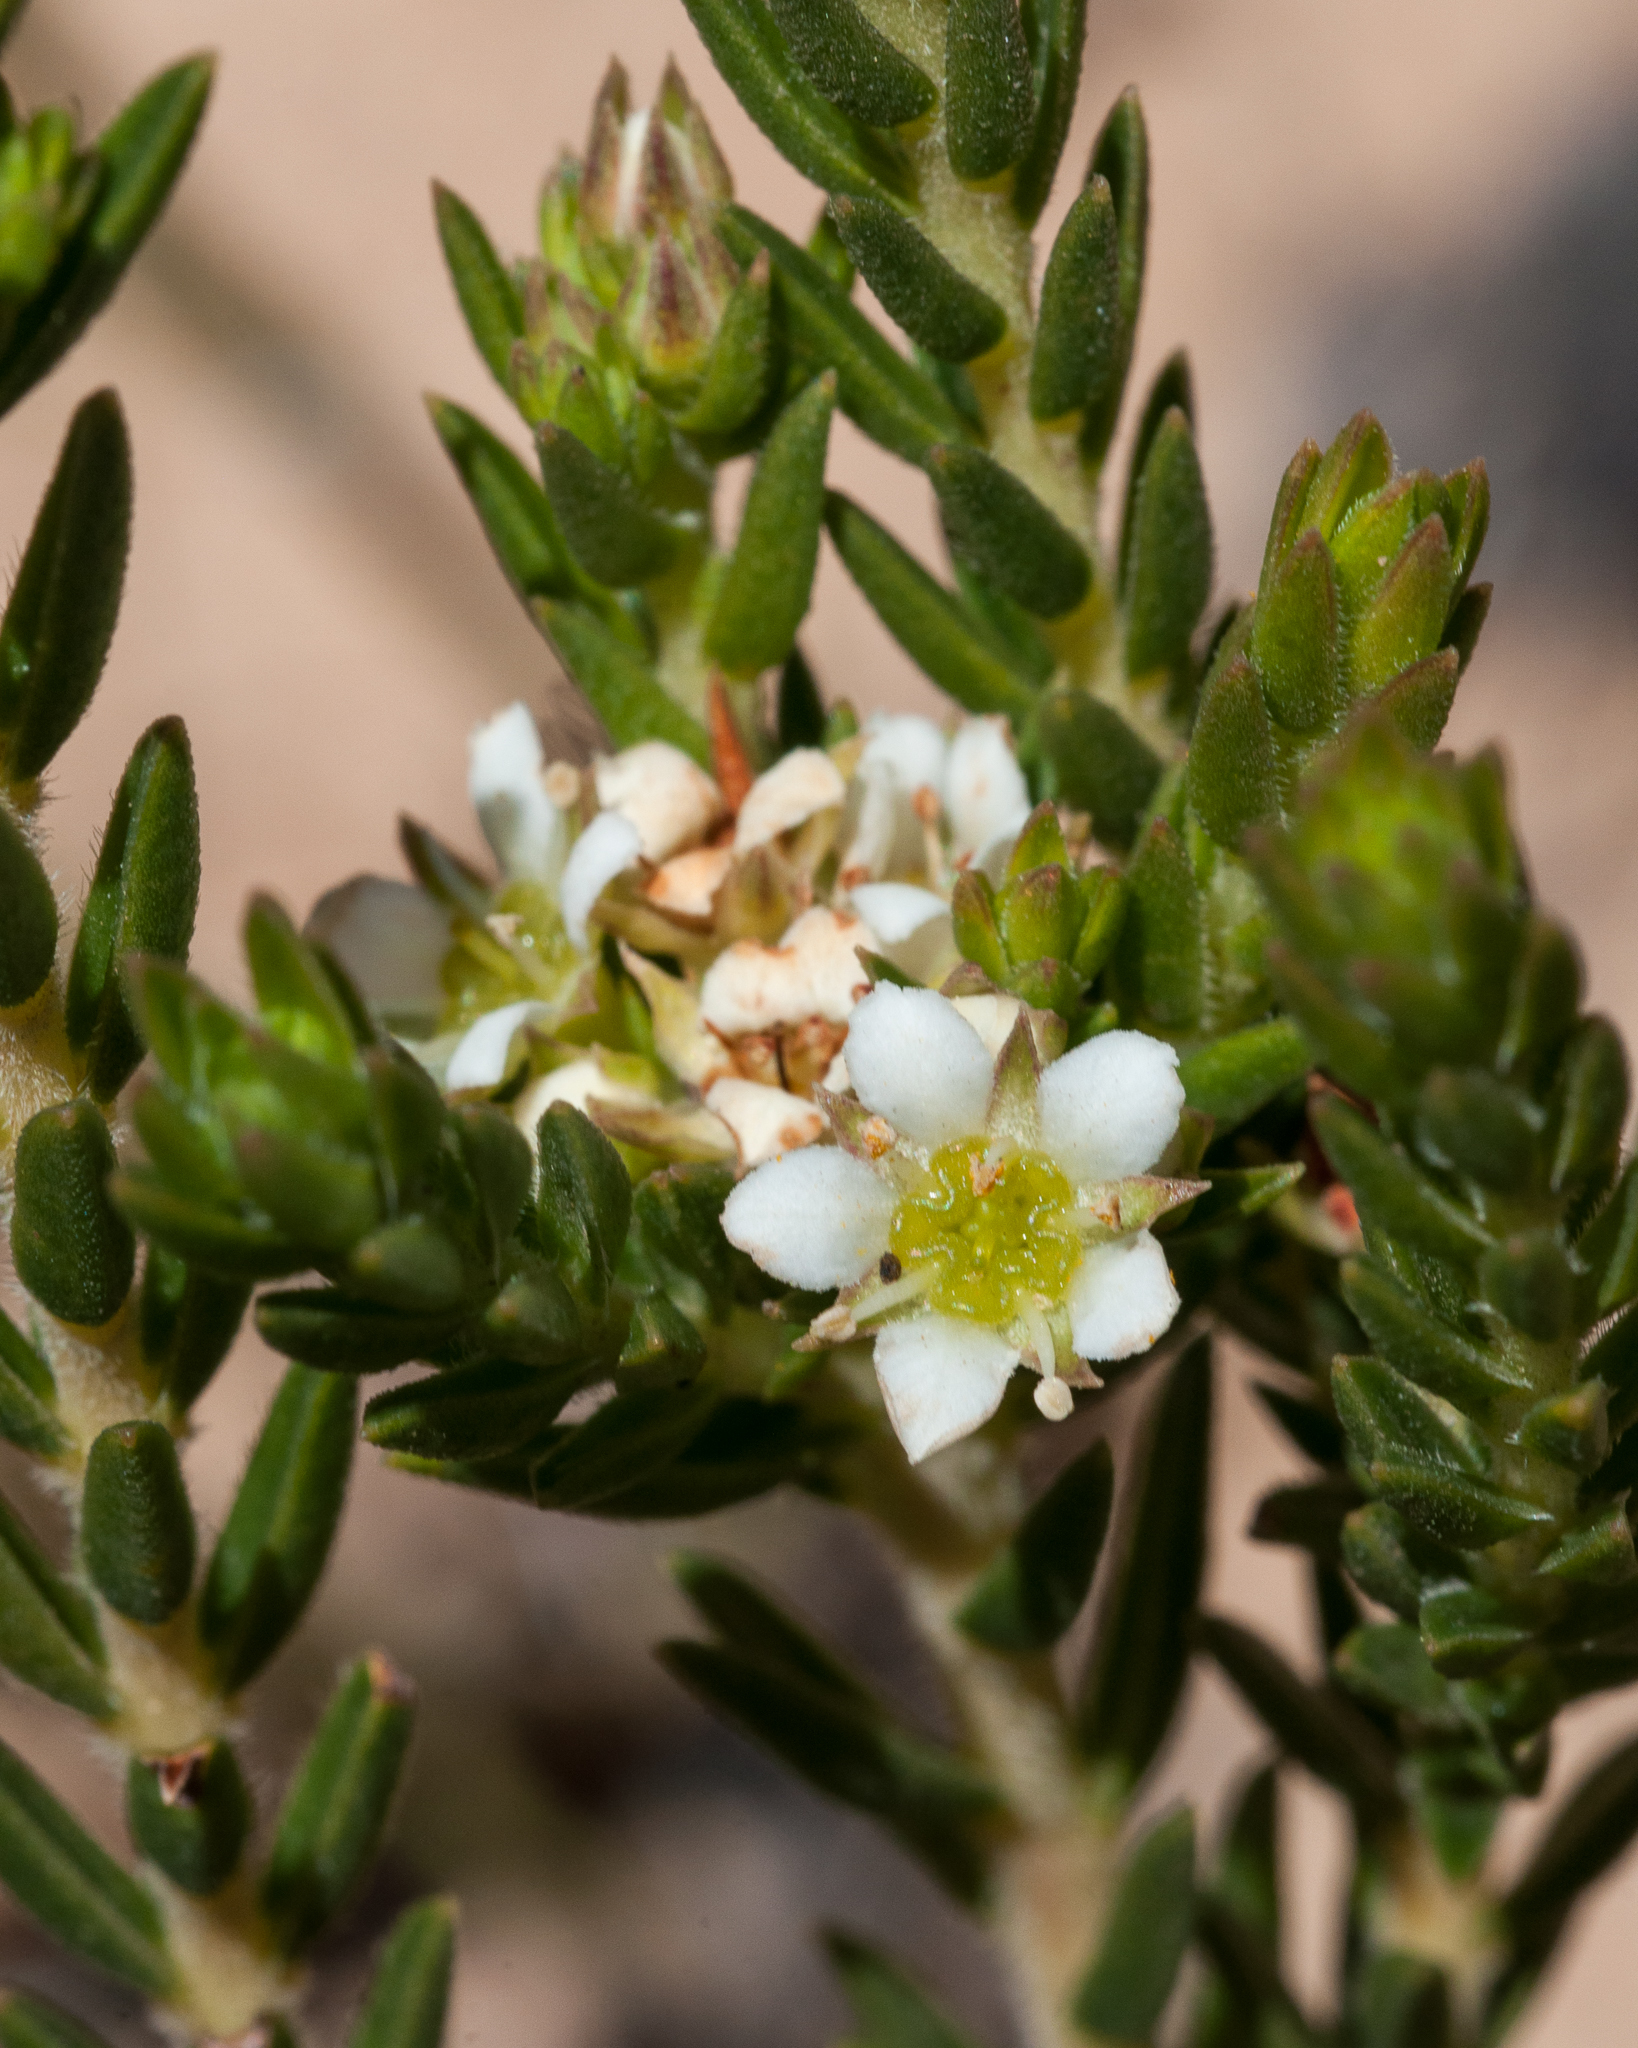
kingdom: Plantae
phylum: Tracheophyta
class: Magnoliopsida
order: Sapindales
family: Rutaceae
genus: Diosma
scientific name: Diosma oppositifolia
